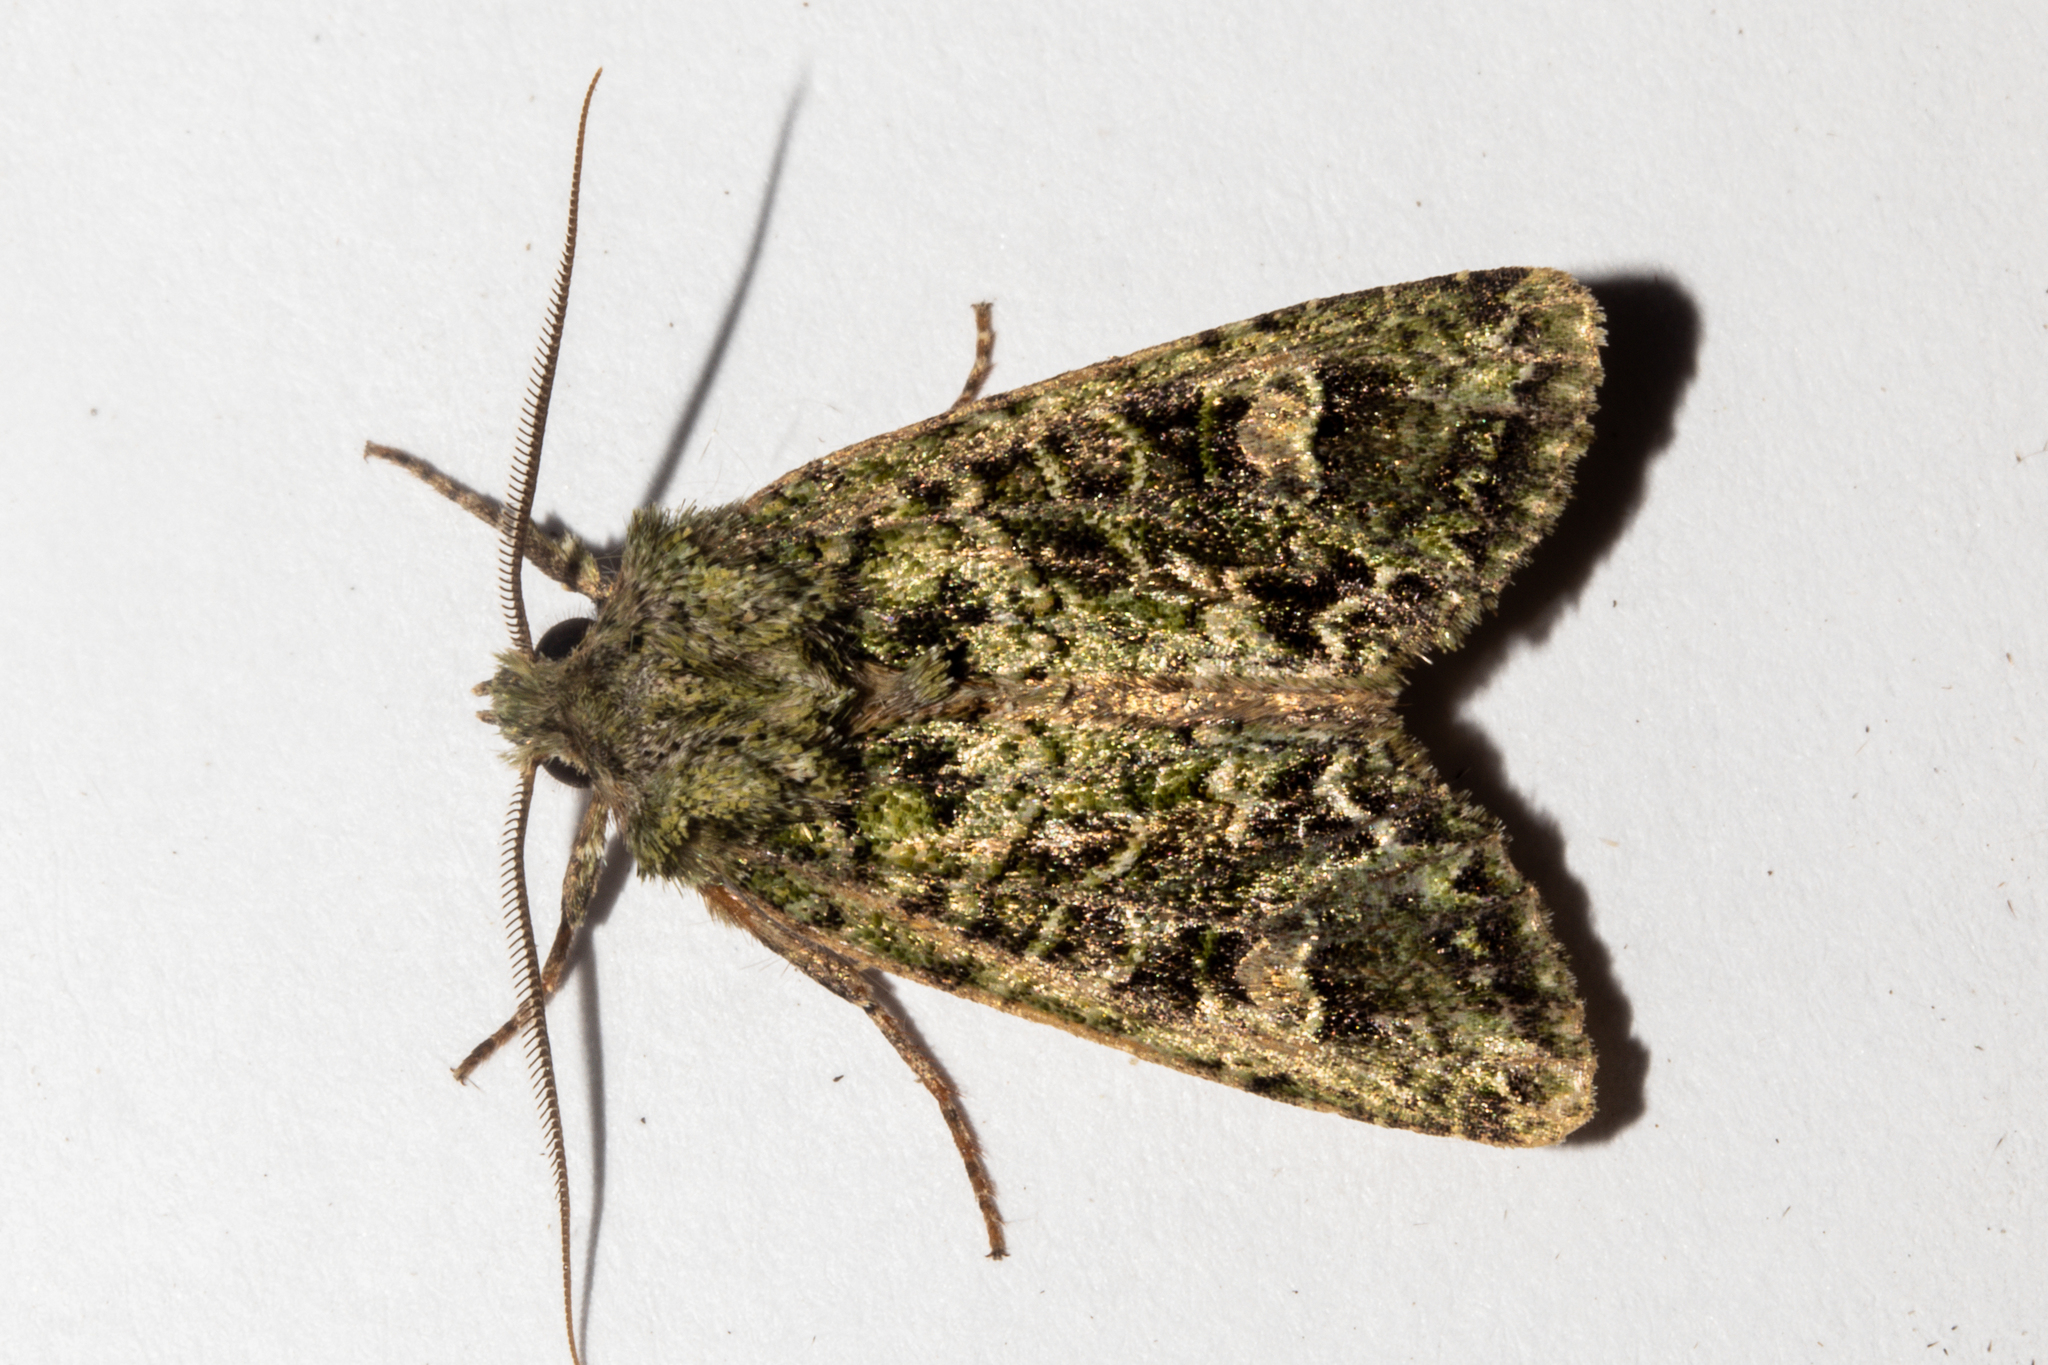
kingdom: Animalia
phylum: Arthropoda
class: Insecta
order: Lepidoptera
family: Noctuidae
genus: Ichneutica
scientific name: Ichneutica
